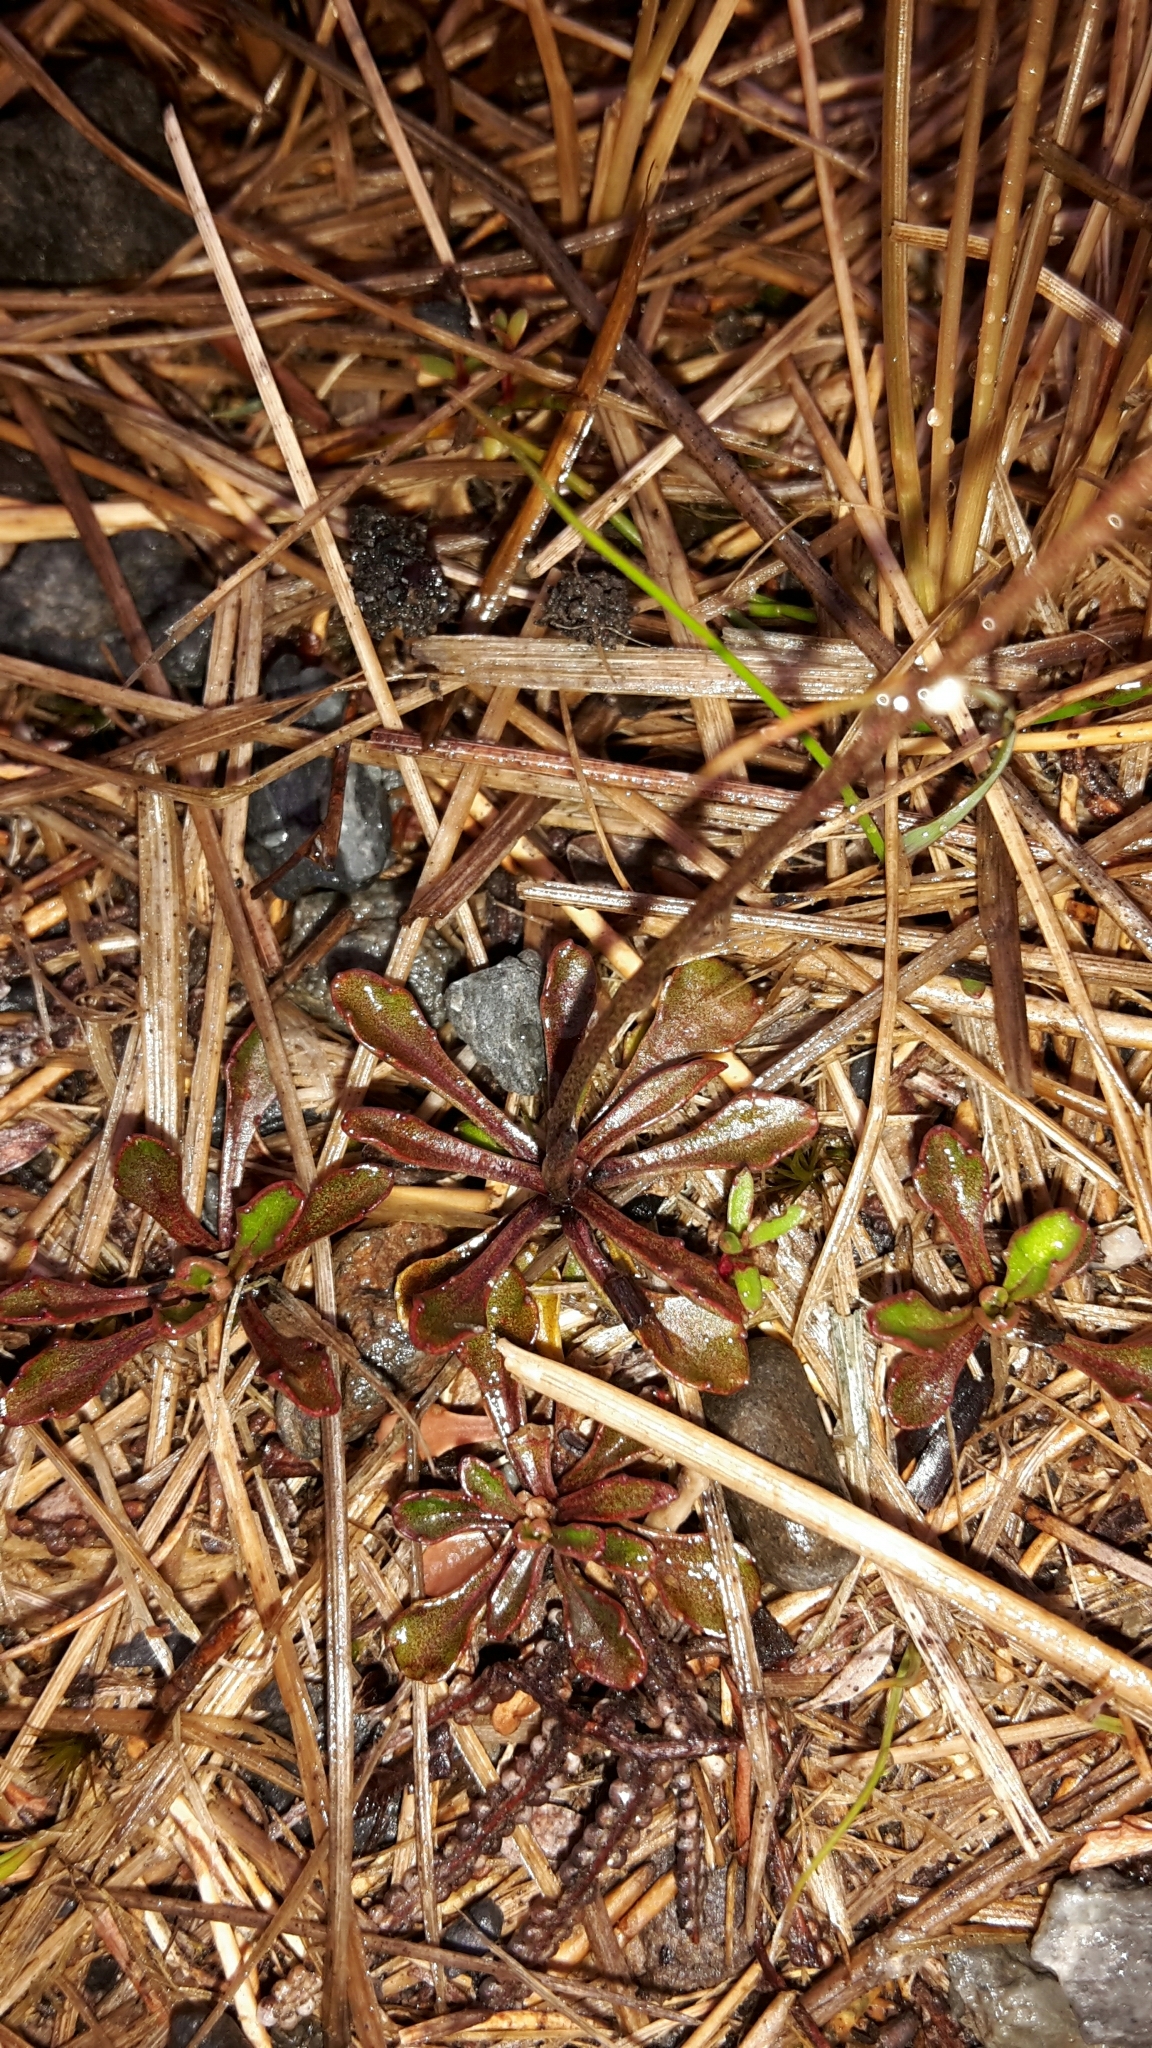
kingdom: Plantae
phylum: Tracheophyta
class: Magnoliopsida
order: Asterales
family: Campanulaceae
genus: Wahlenbergia
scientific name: Wahlenbergia pygmaea
